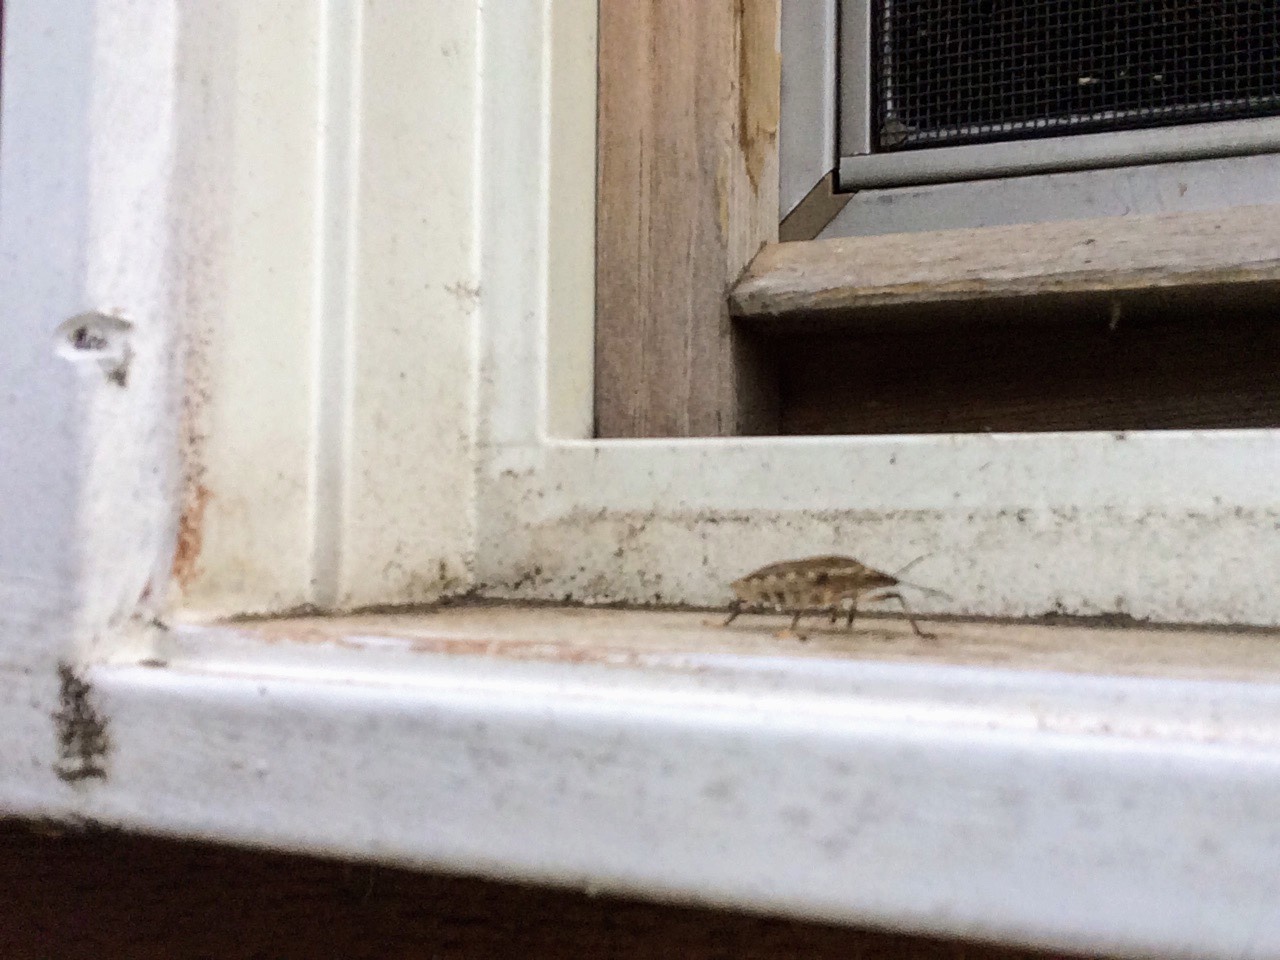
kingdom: Animalia
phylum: Arthropoda
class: Insecta
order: Hemiptera
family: Pentatomidae
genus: Halyomorpha
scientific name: Halyomorpha halys
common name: Brown marmorated stink bug
